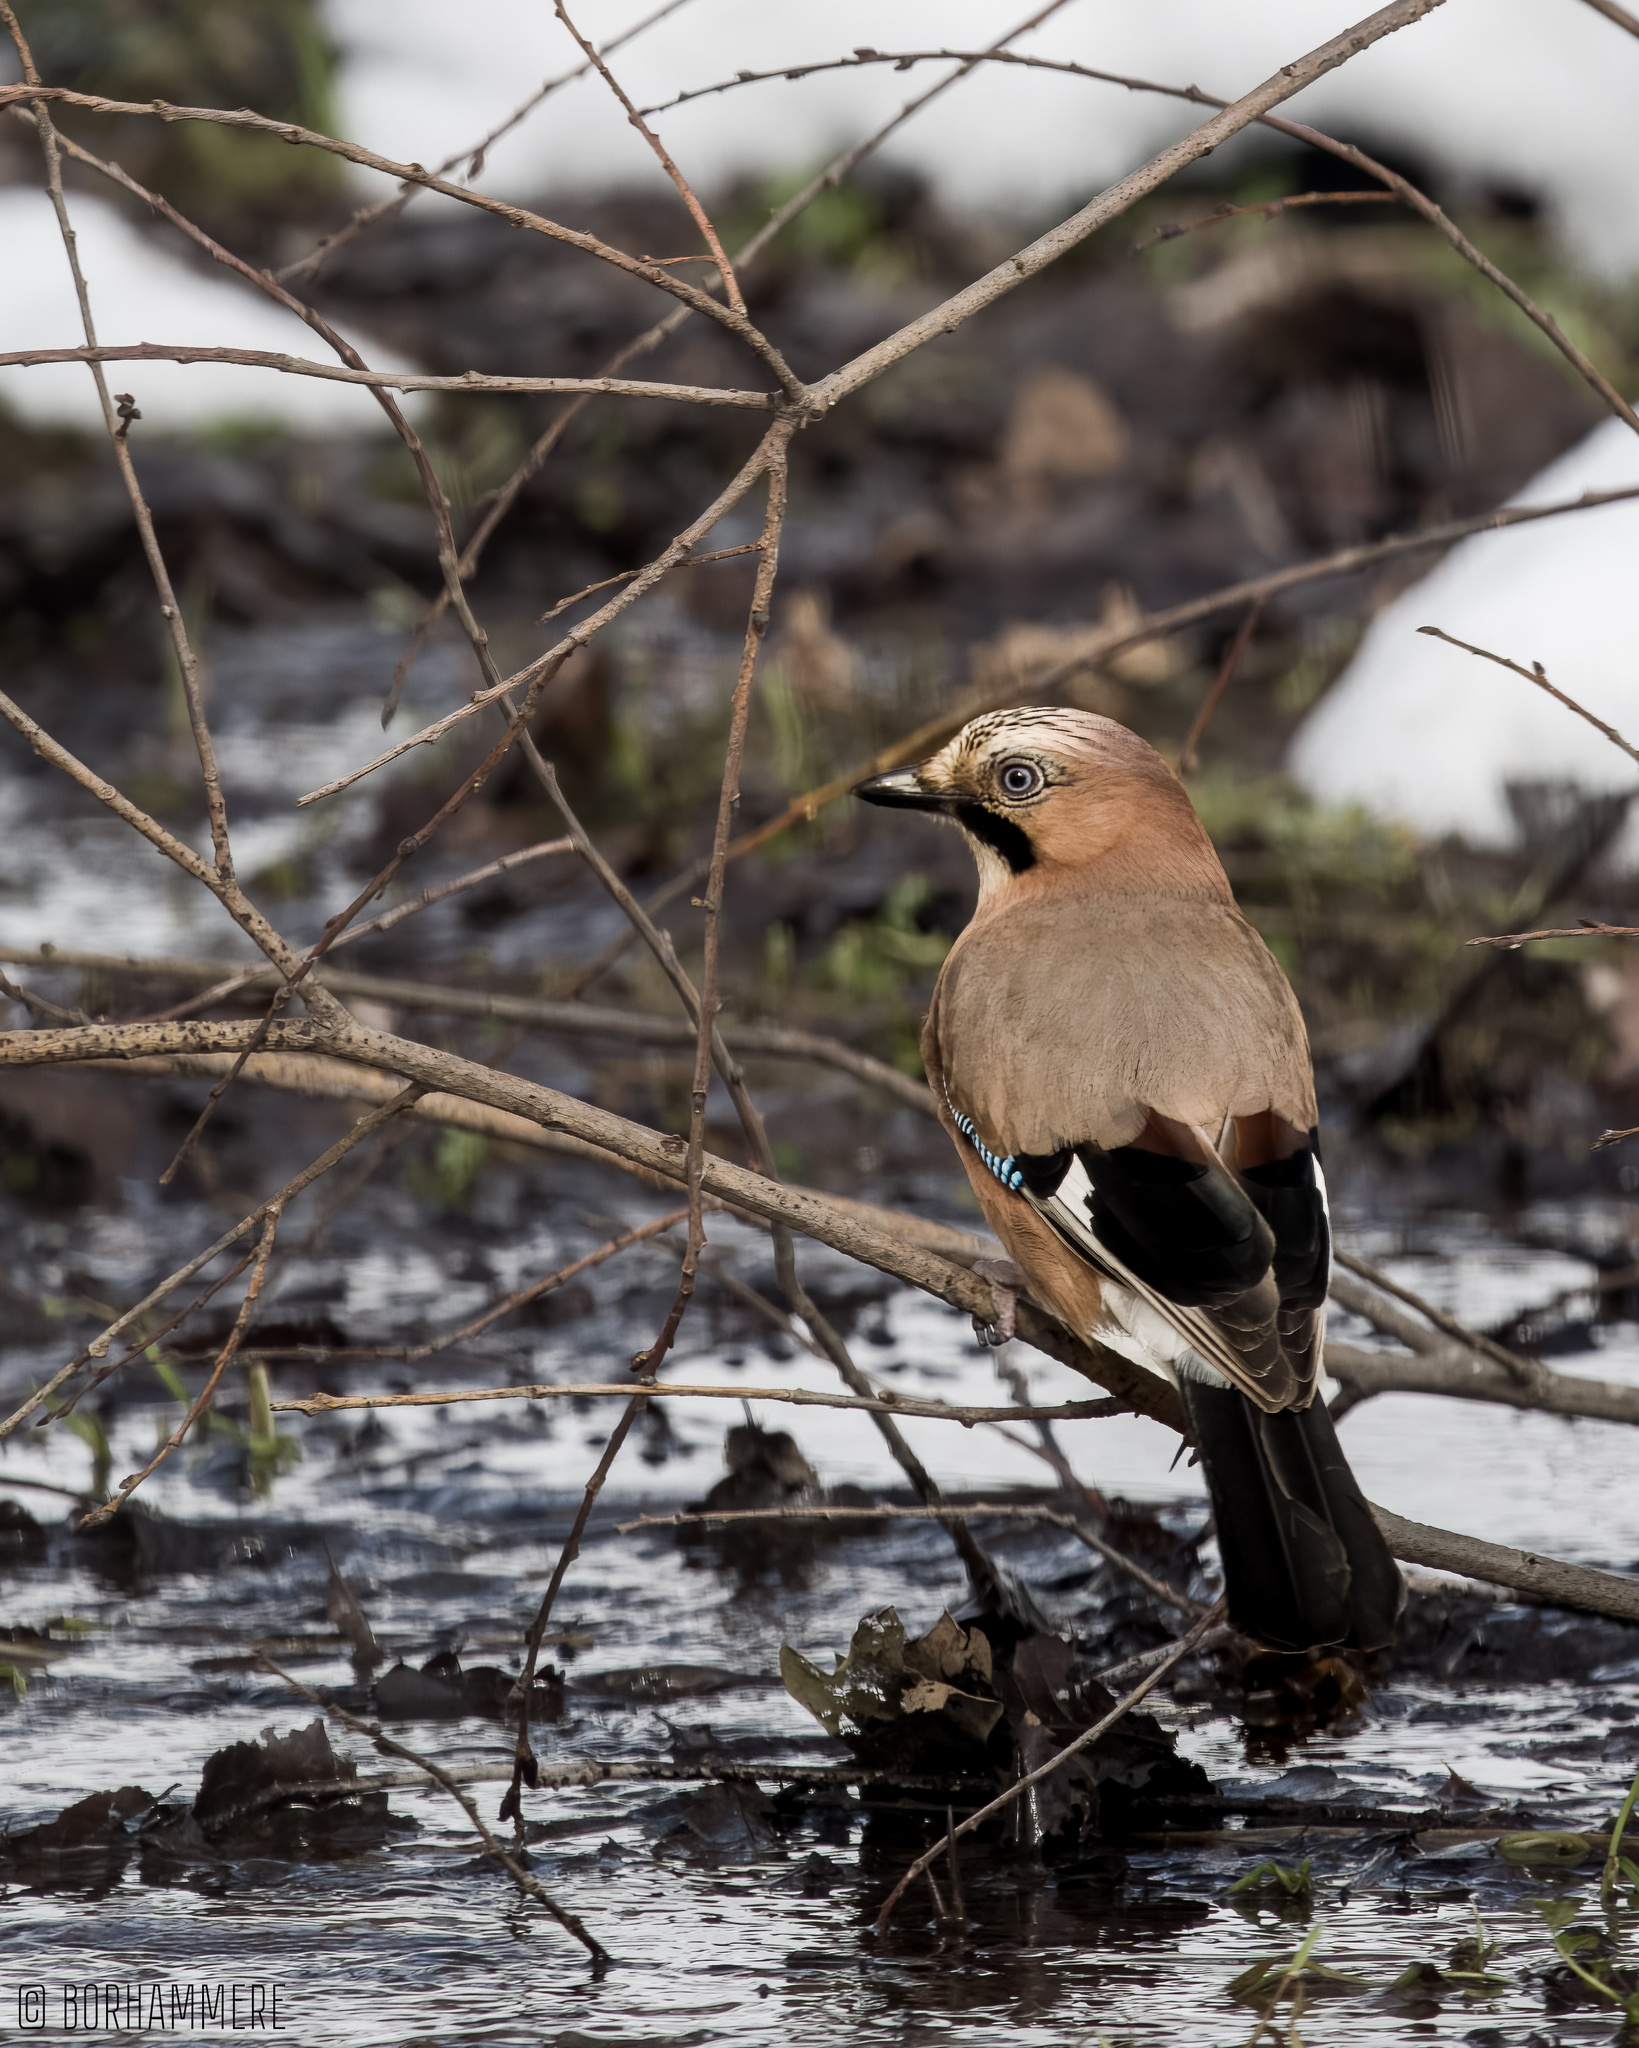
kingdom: Animalia
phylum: Chordata
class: Aves
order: Passeriformes
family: Corvidae
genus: Garrulus
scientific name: Garrulus glandarius
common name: Eurasian jay
